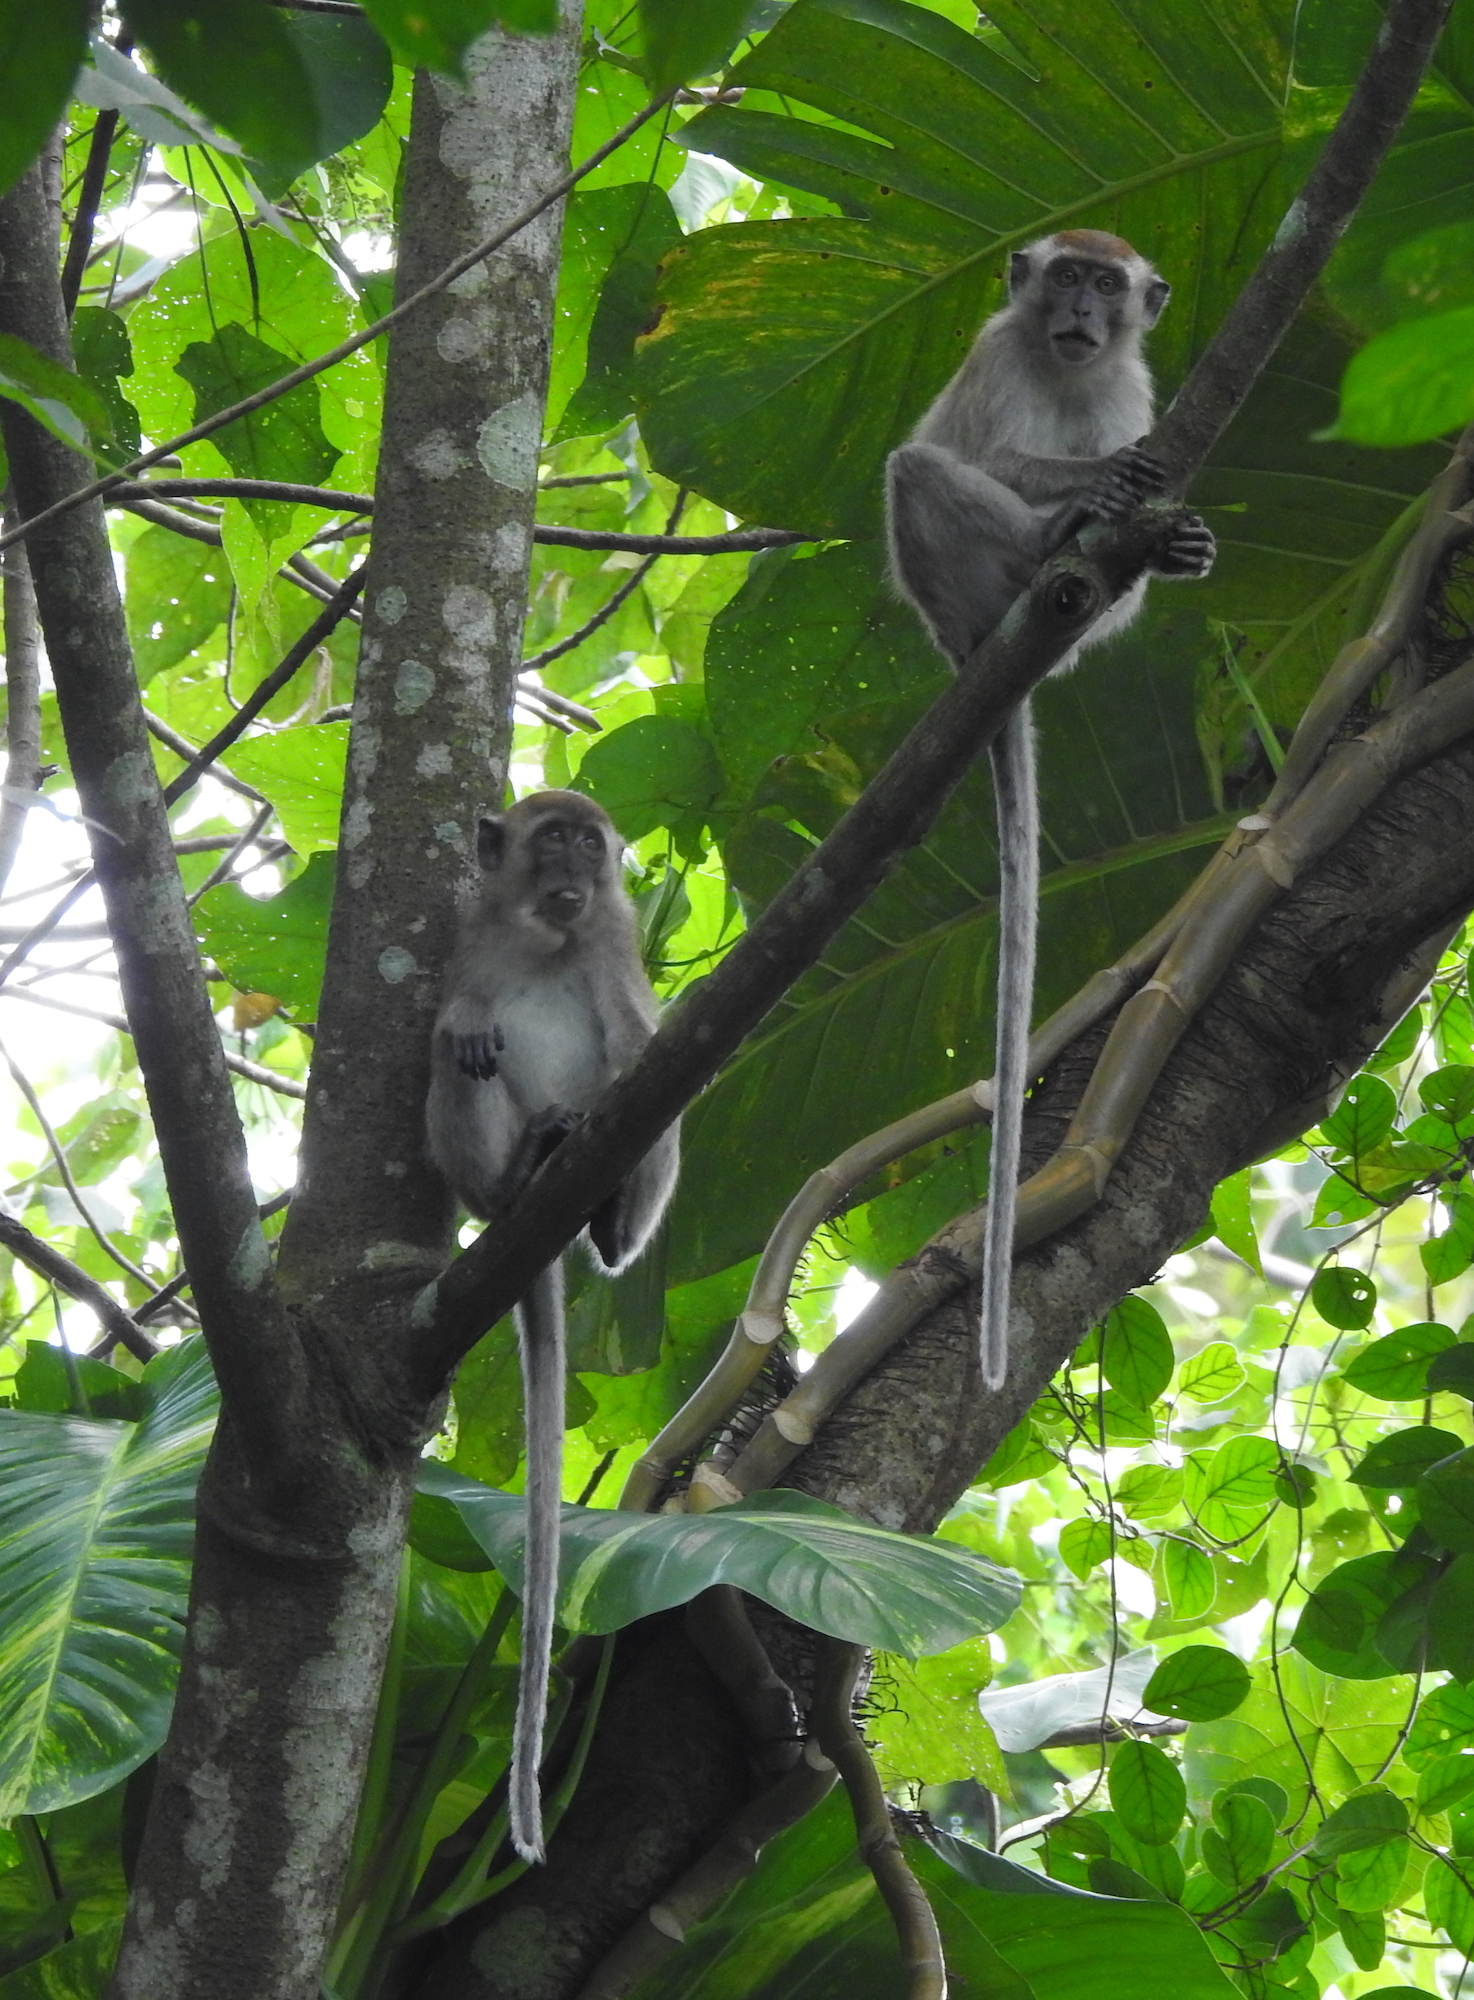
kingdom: Animalia
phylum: Chordata
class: Mammalia
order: Primates
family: Cercopithecidae
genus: Macaca
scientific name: Macaca fascicularis
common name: Crab-eating macaque
